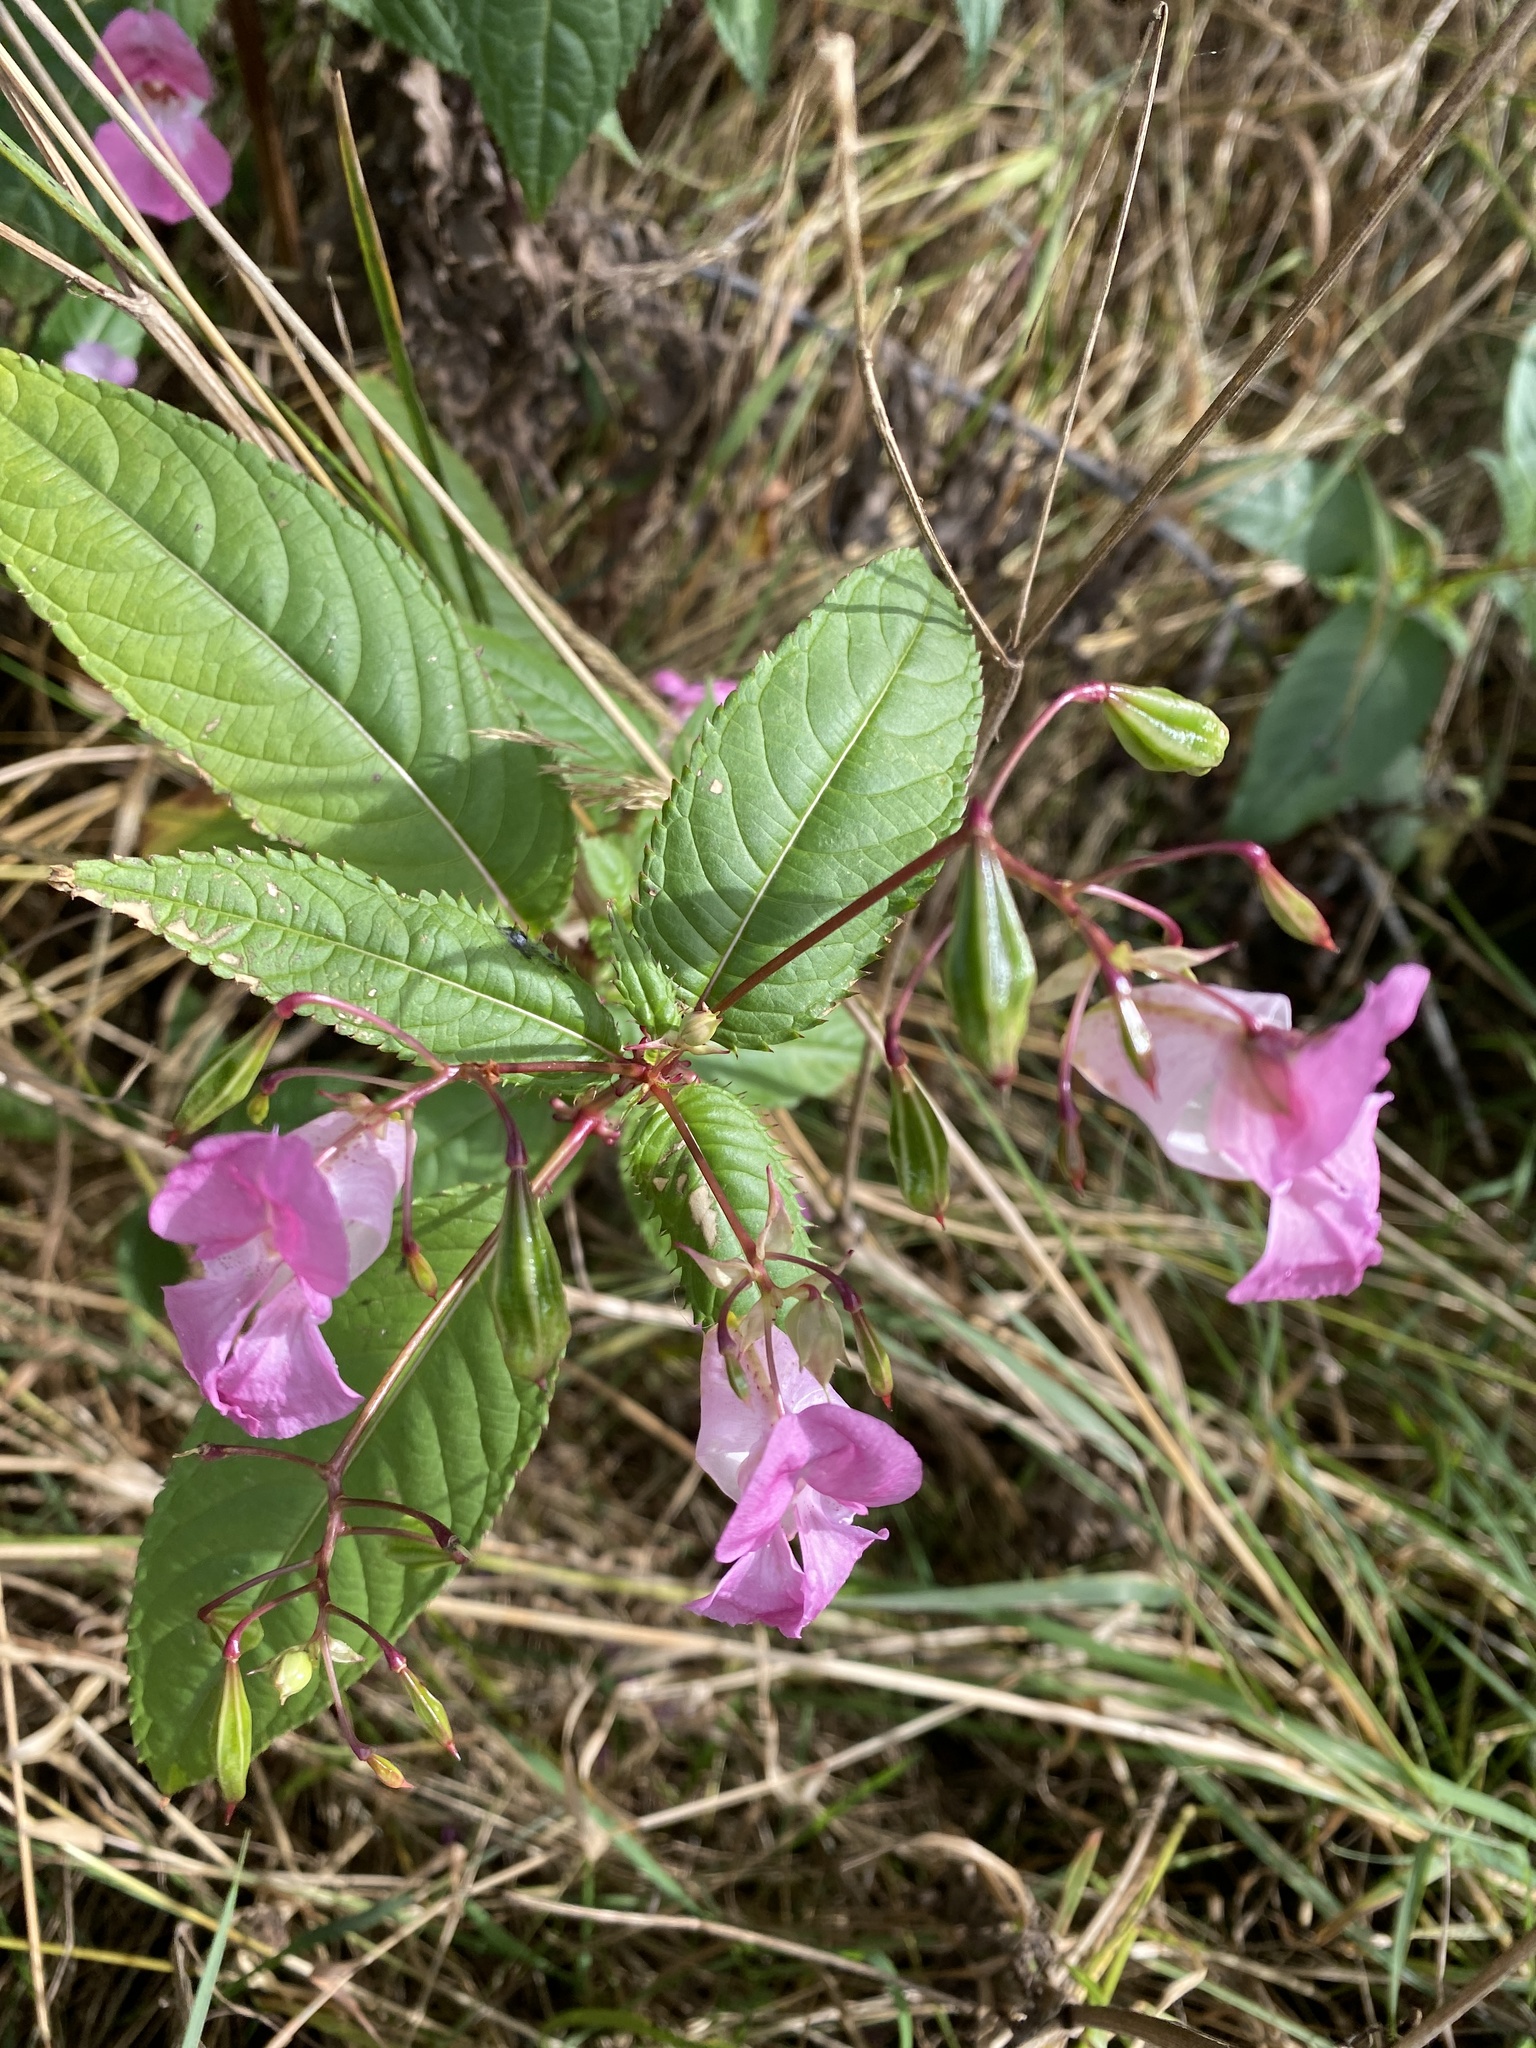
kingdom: Plantae
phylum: Tracheophyta
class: Magnoliopsida
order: Ericales
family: Balsaminaceae
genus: Impatiens
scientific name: Impatiens glandulifera
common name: Himalayan balsam
